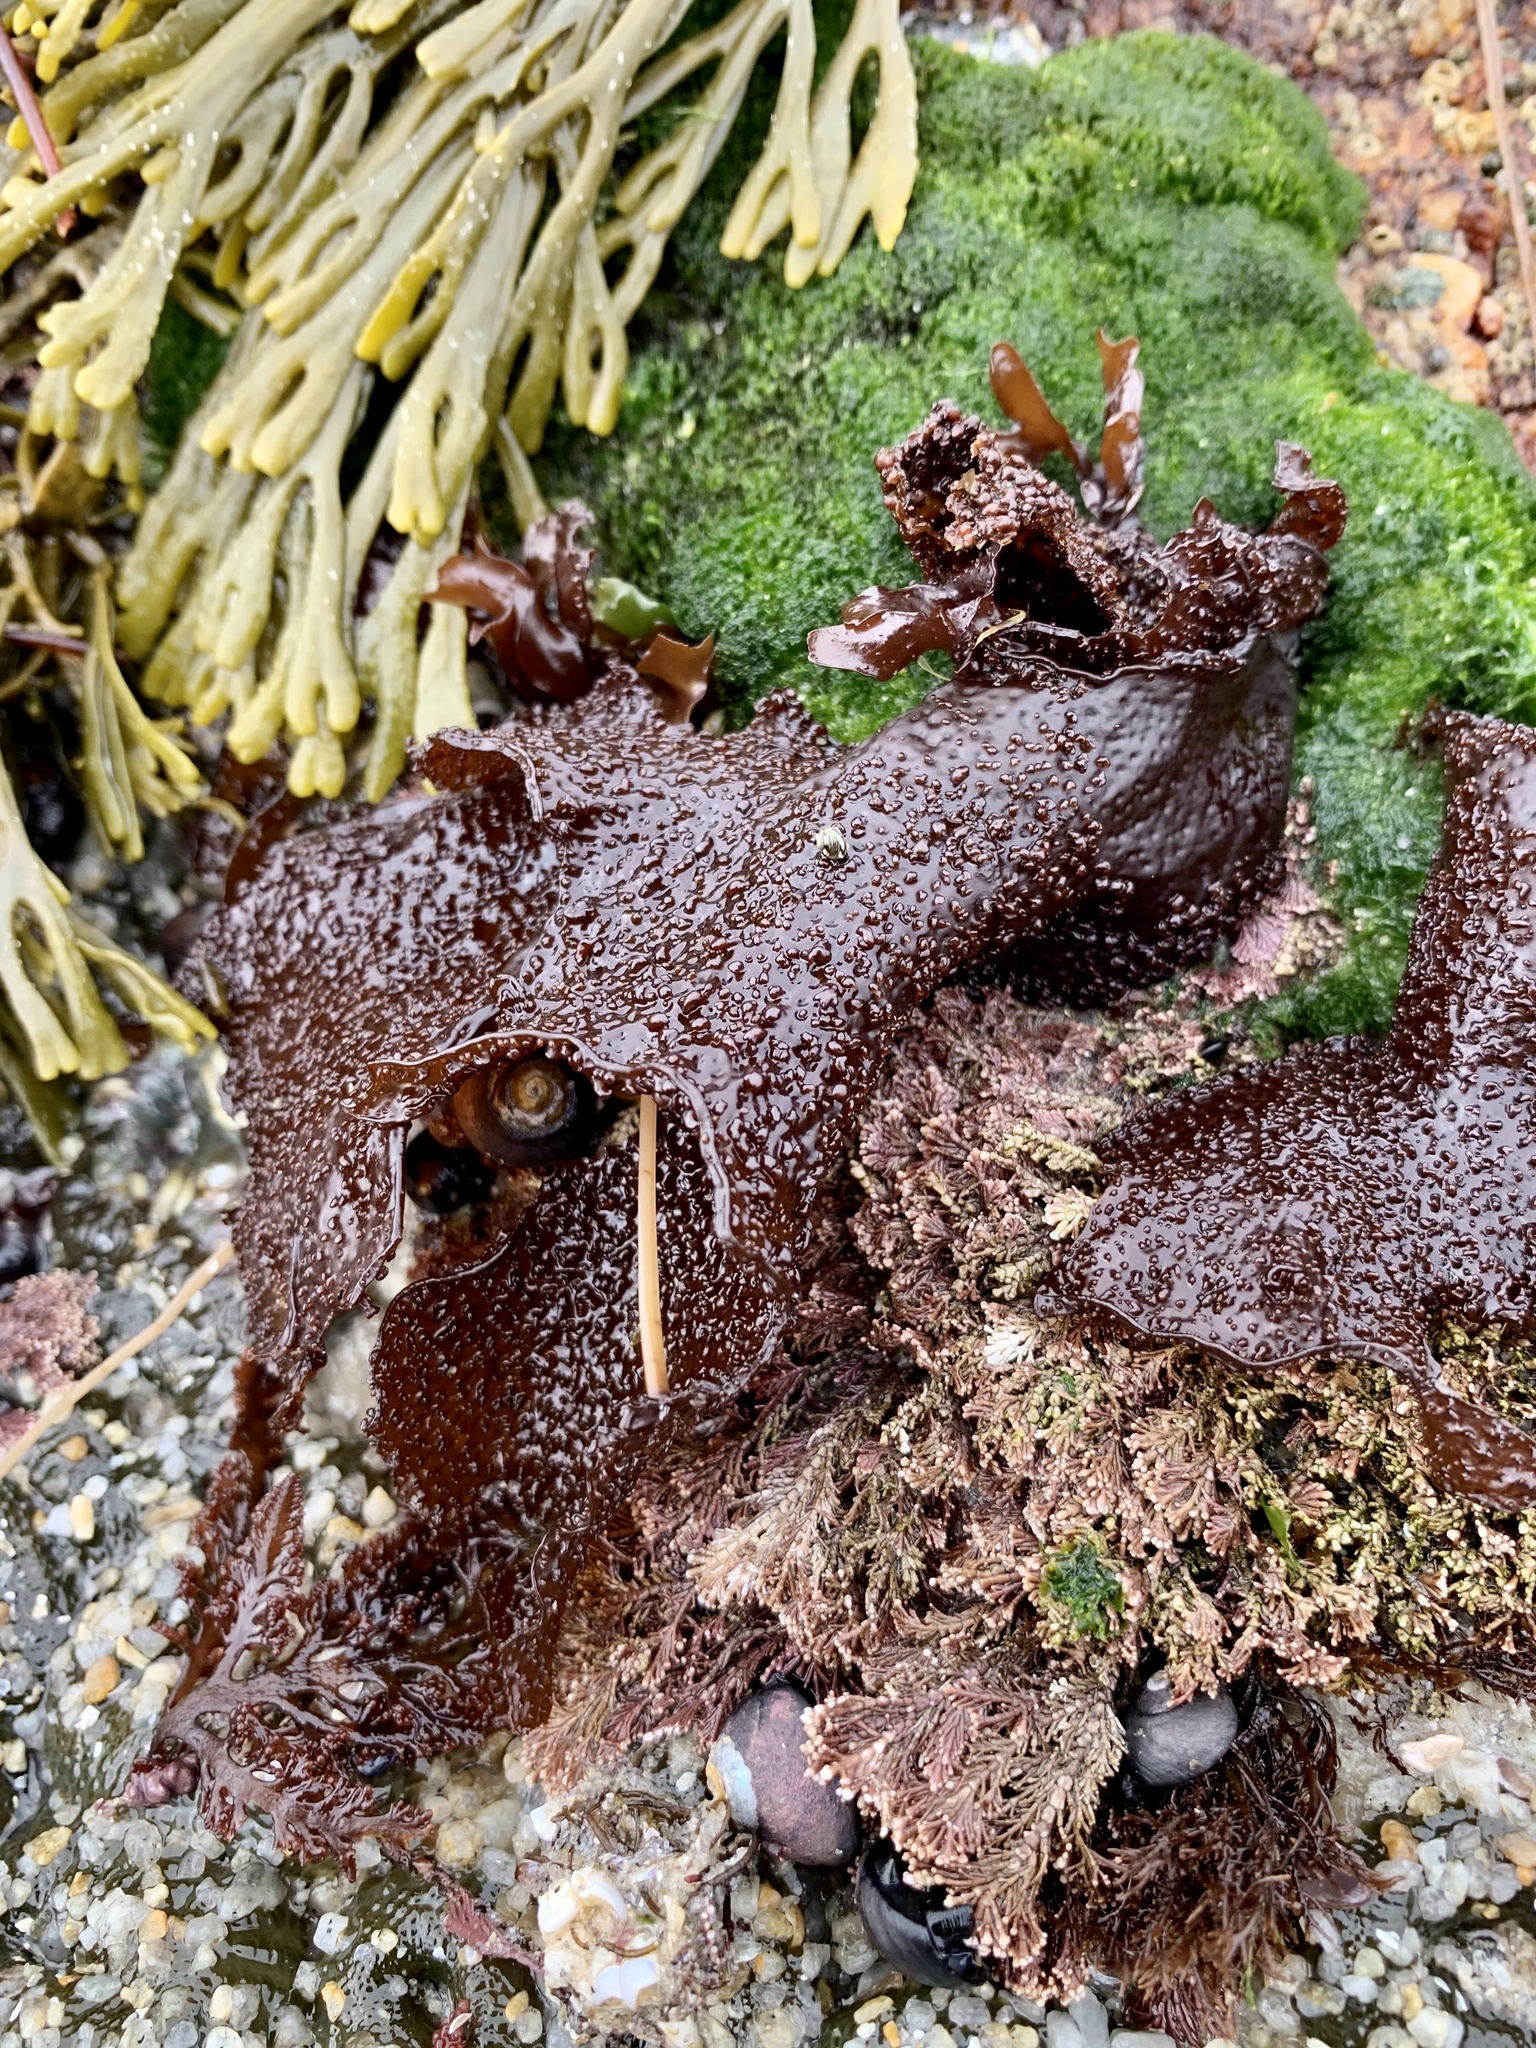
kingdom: Plantae
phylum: Rhodophyta
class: Florideophyceae
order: Gigartinales
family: Phyllophoraceae
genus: Mastocarpus
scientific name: Mastocarpus papillatus
